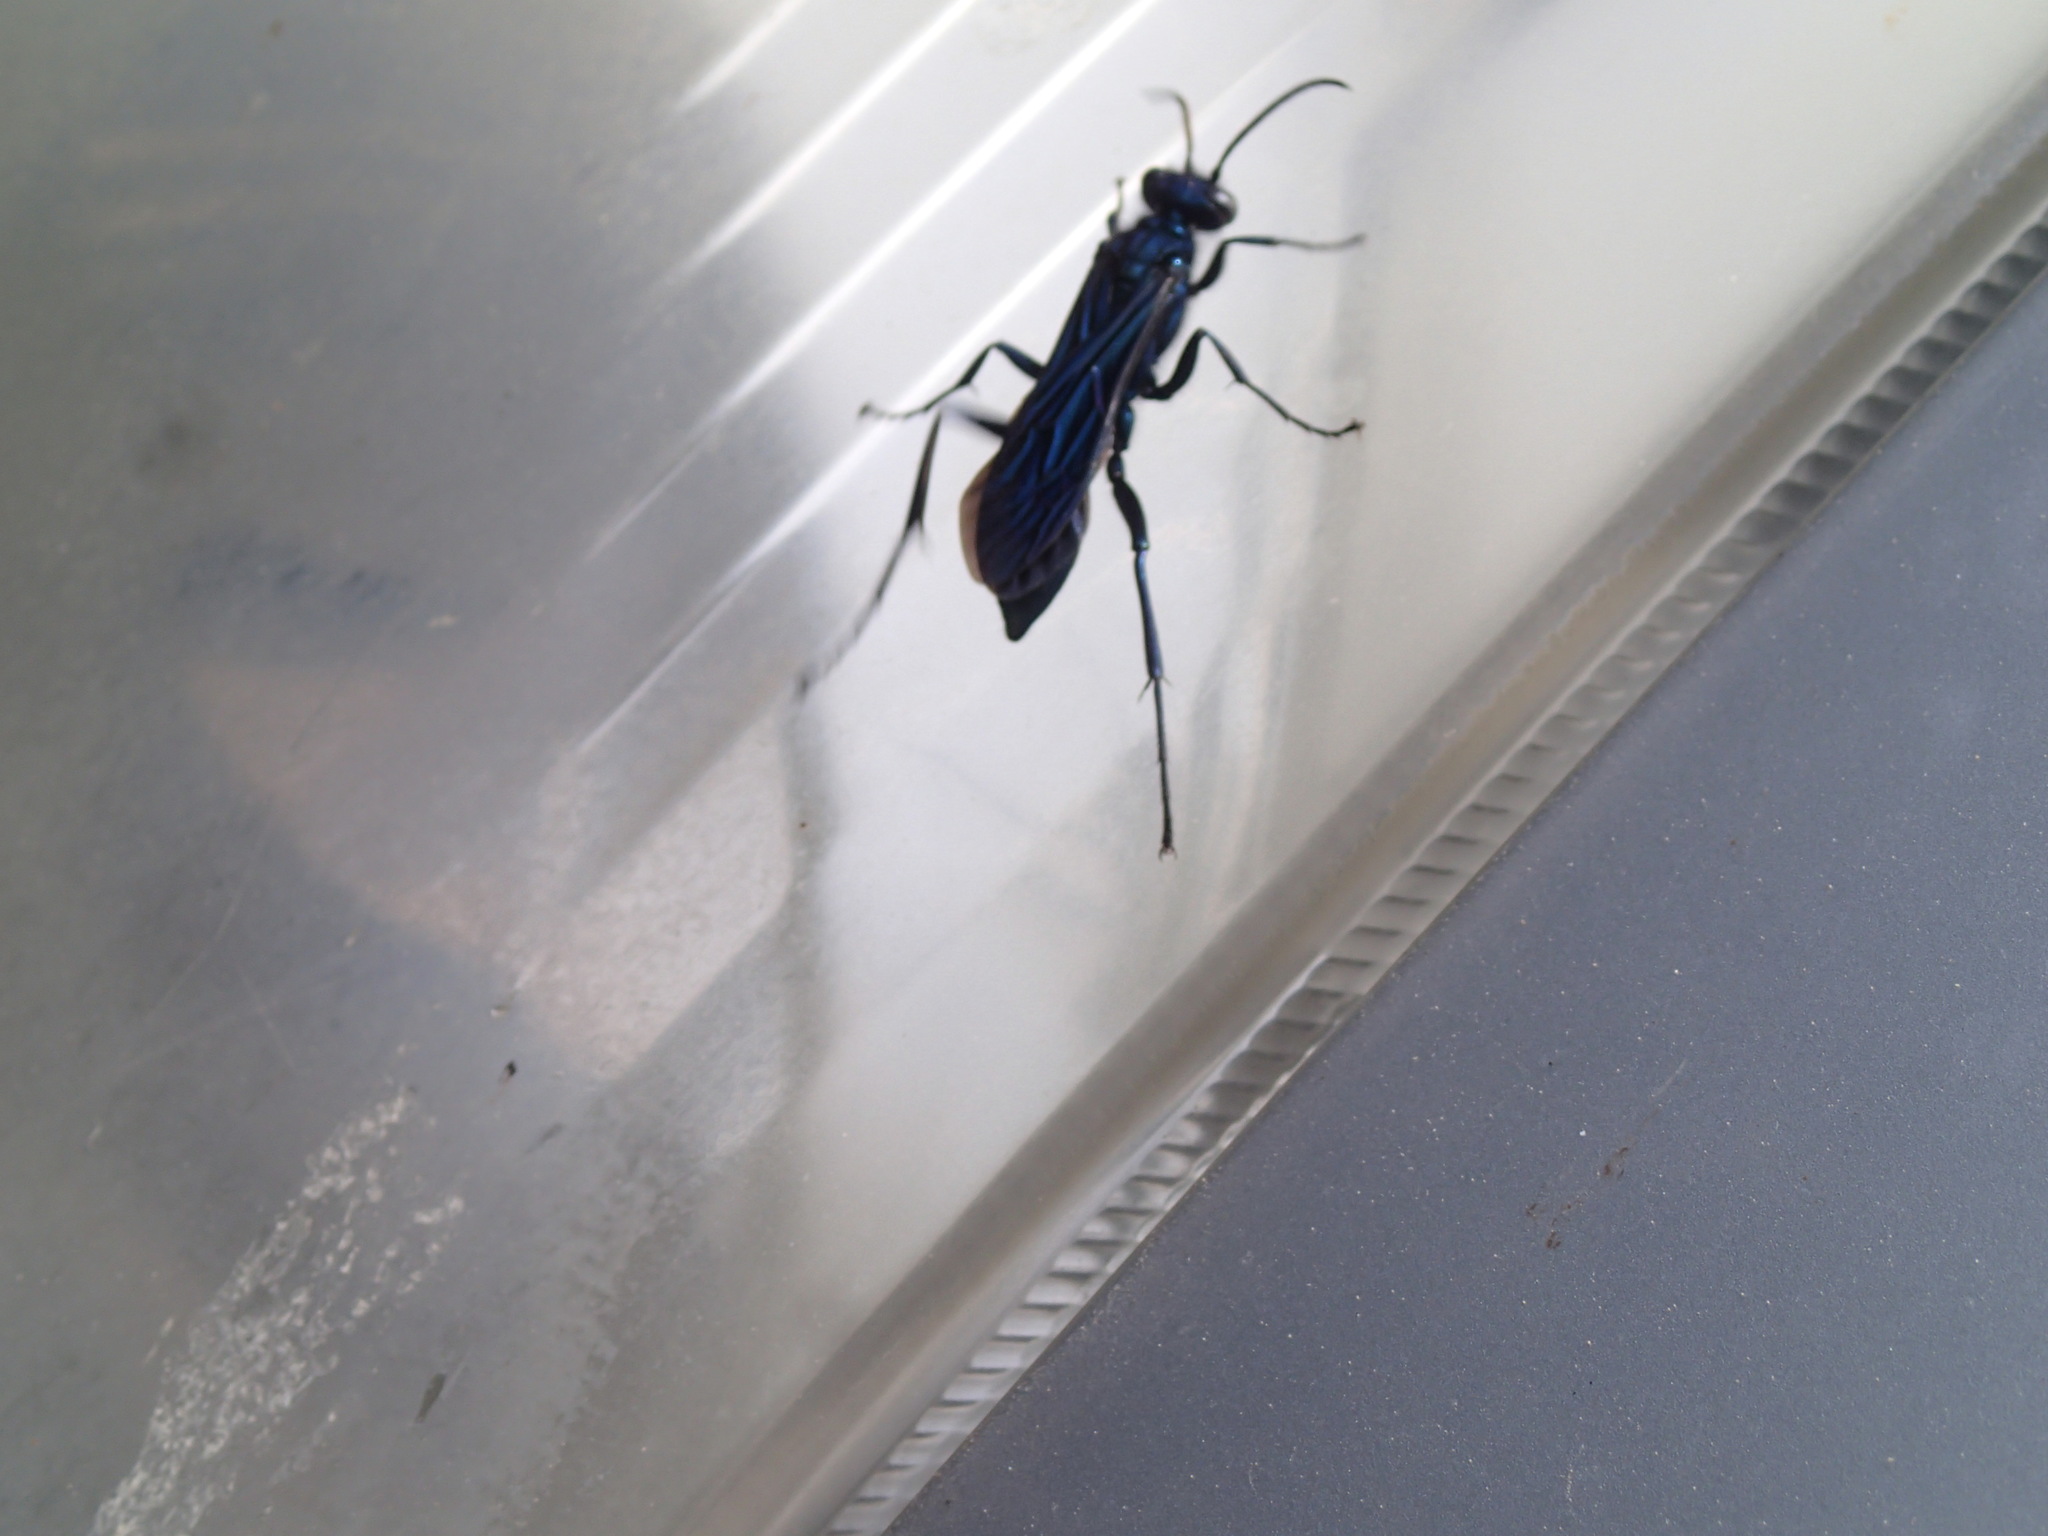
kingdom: Animalia
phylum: Arthropoda
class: Insecta
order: Hymenoptera
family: Sphecidae
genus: Chalybion
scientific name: Chalybion californicum
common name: Mud dauber
